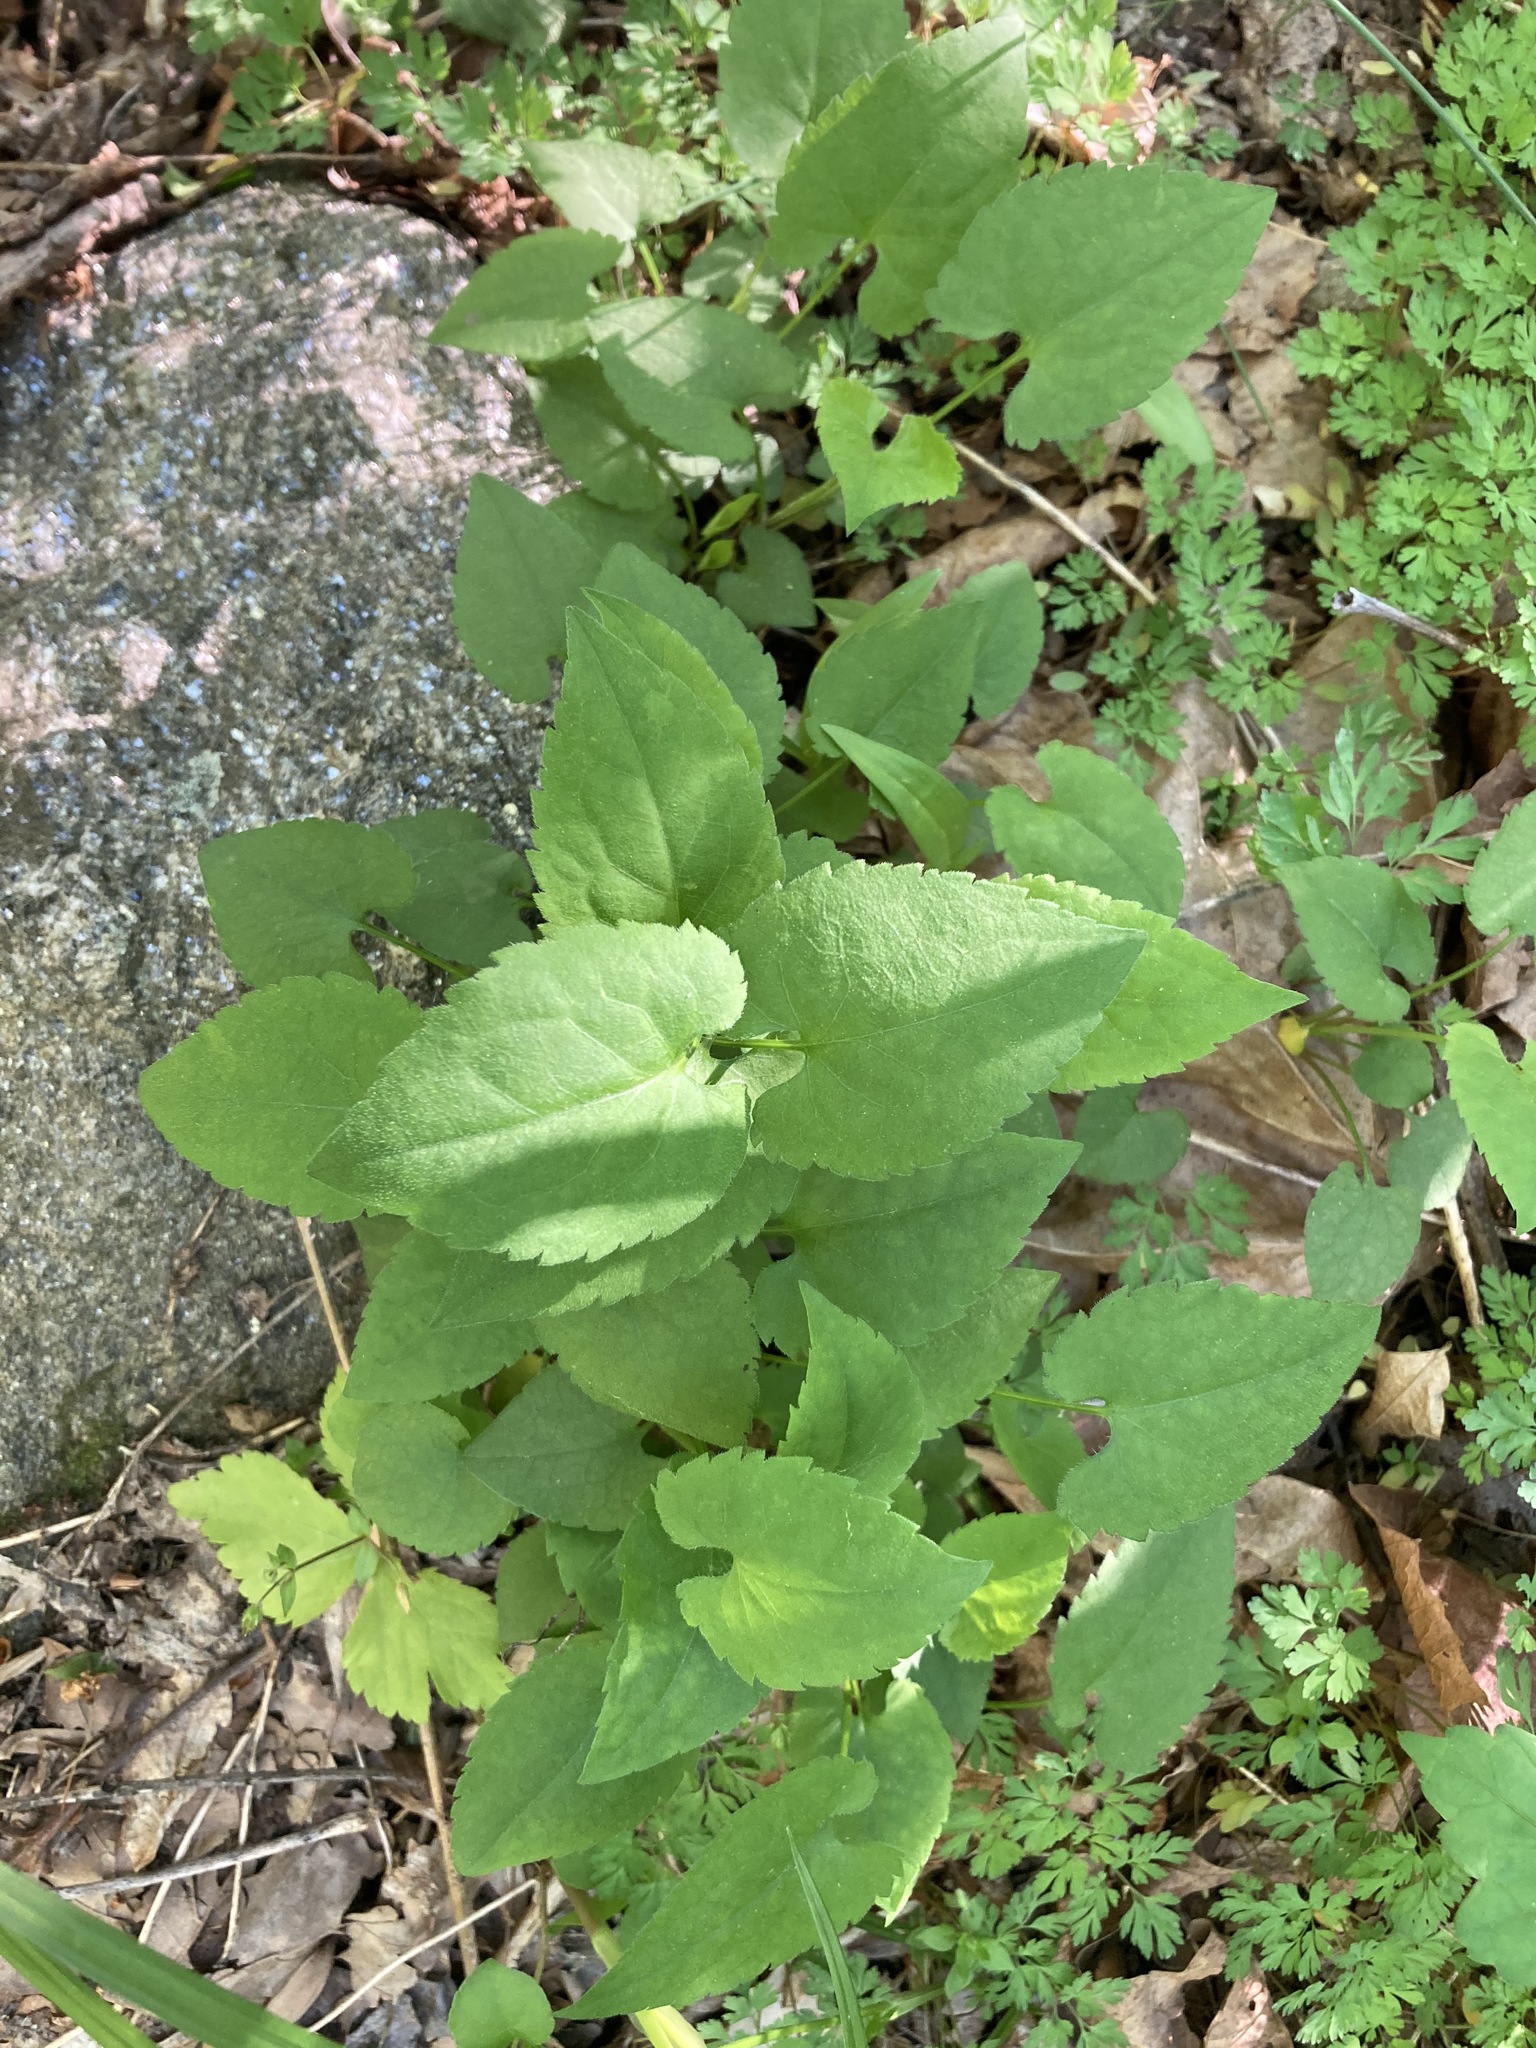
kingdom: Plantae
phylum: Tracheophyta
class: Magnoliopsida
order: Asterales
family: Asteraceae
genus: Symphyotrichum
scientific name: Symphyotrichum cordifolium
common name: Beeweed
